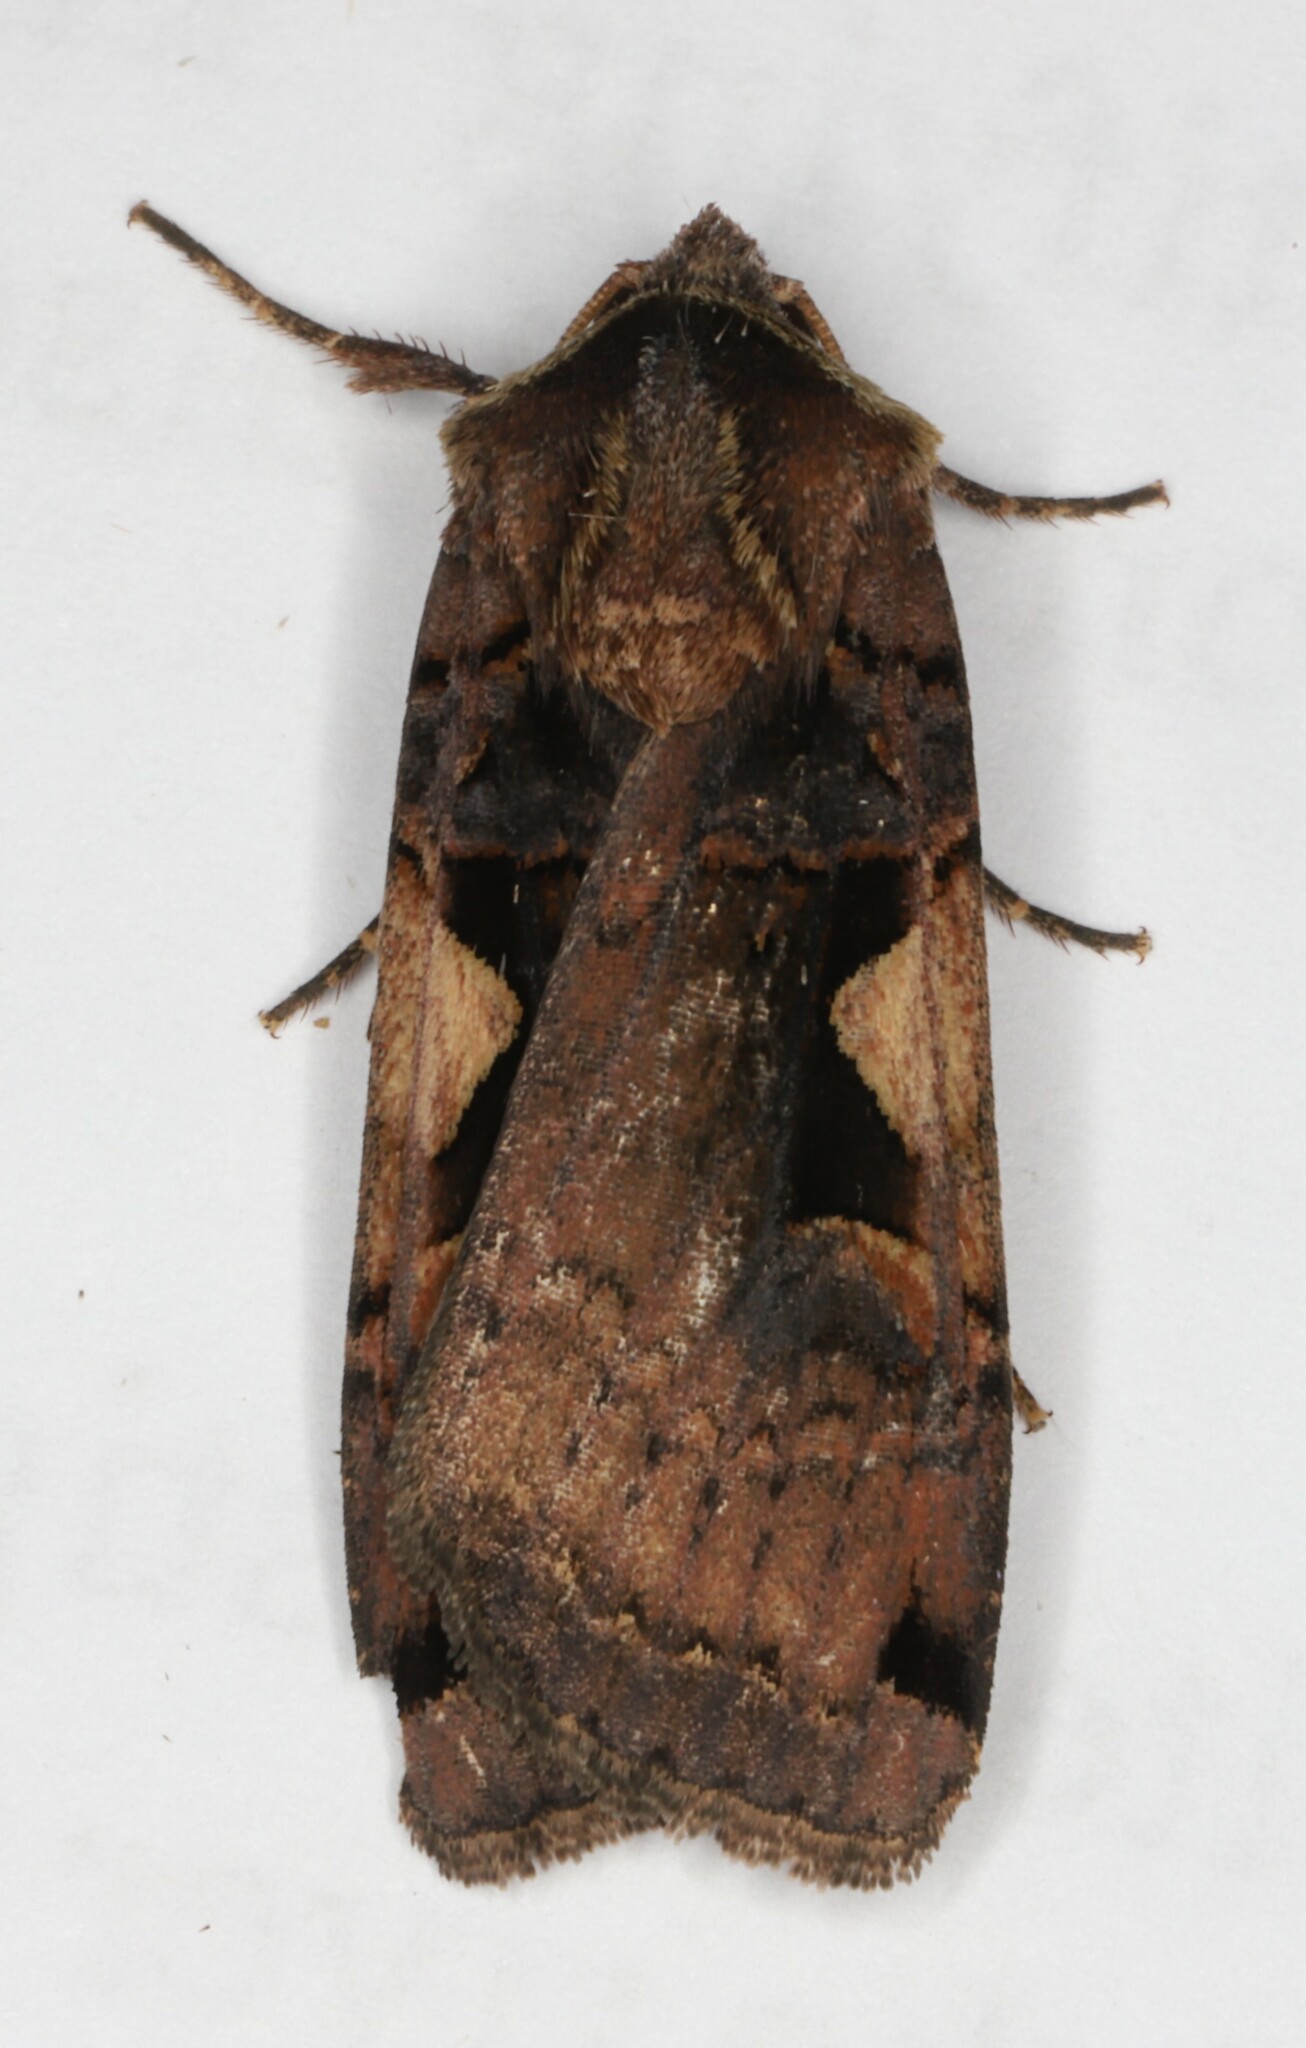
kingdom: Animalia
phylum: Arthropoda
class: Insecta
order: Lepidoptera
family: Noctuidae
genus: Xestia
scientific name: Xestia
